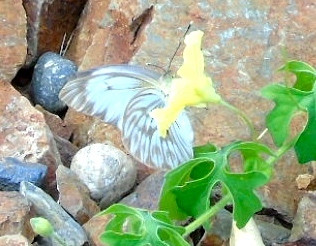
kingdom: Animalia
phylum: Arthropoda
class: Insecta
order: Lepidoptera
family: Pieridae
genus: Ascia
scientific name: Ascia monuste
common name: Great southern white
